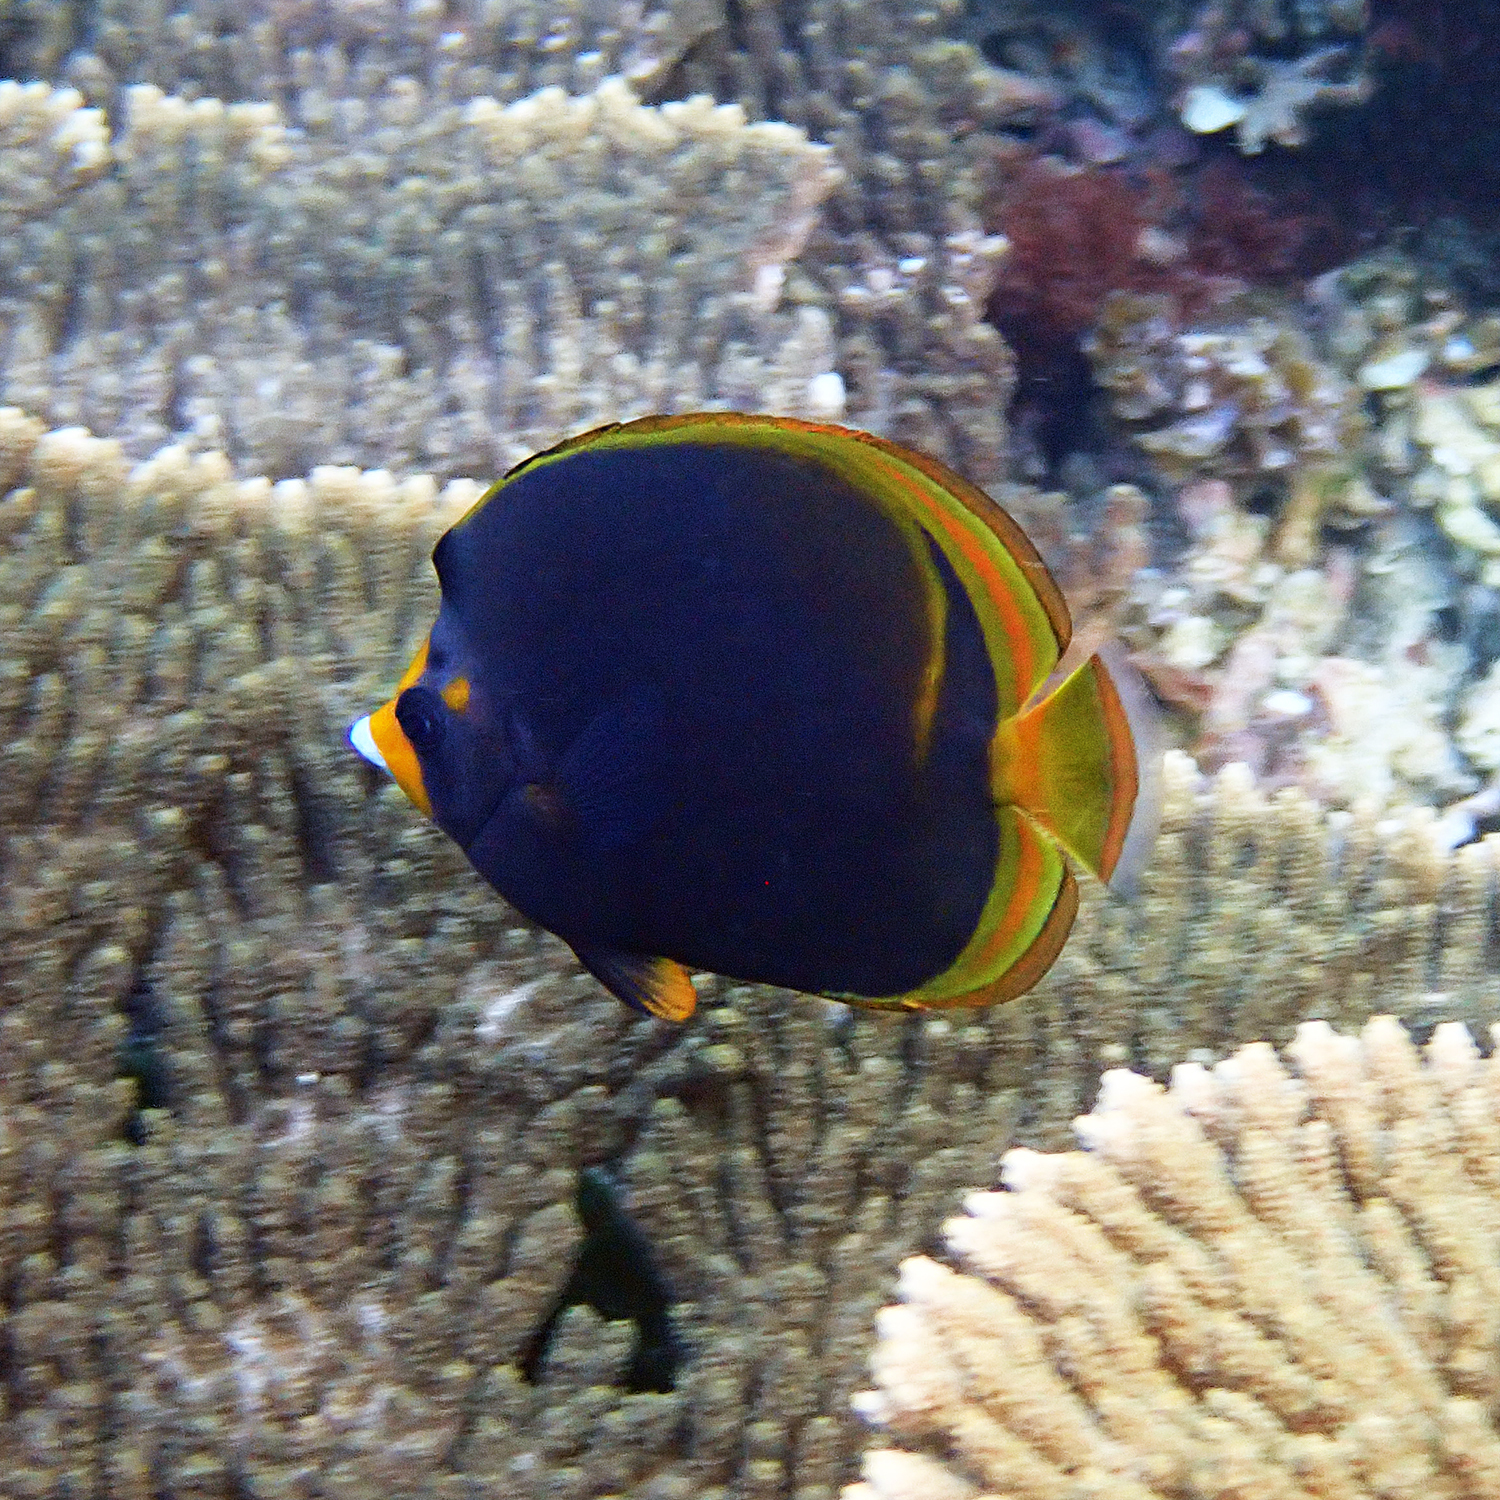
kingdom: Animalia
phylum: Chordata
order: Perciformes
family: Chaetodontidae
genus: Chaetodon
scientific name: Chaetodon flavirostris
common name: Black butterflyfish
